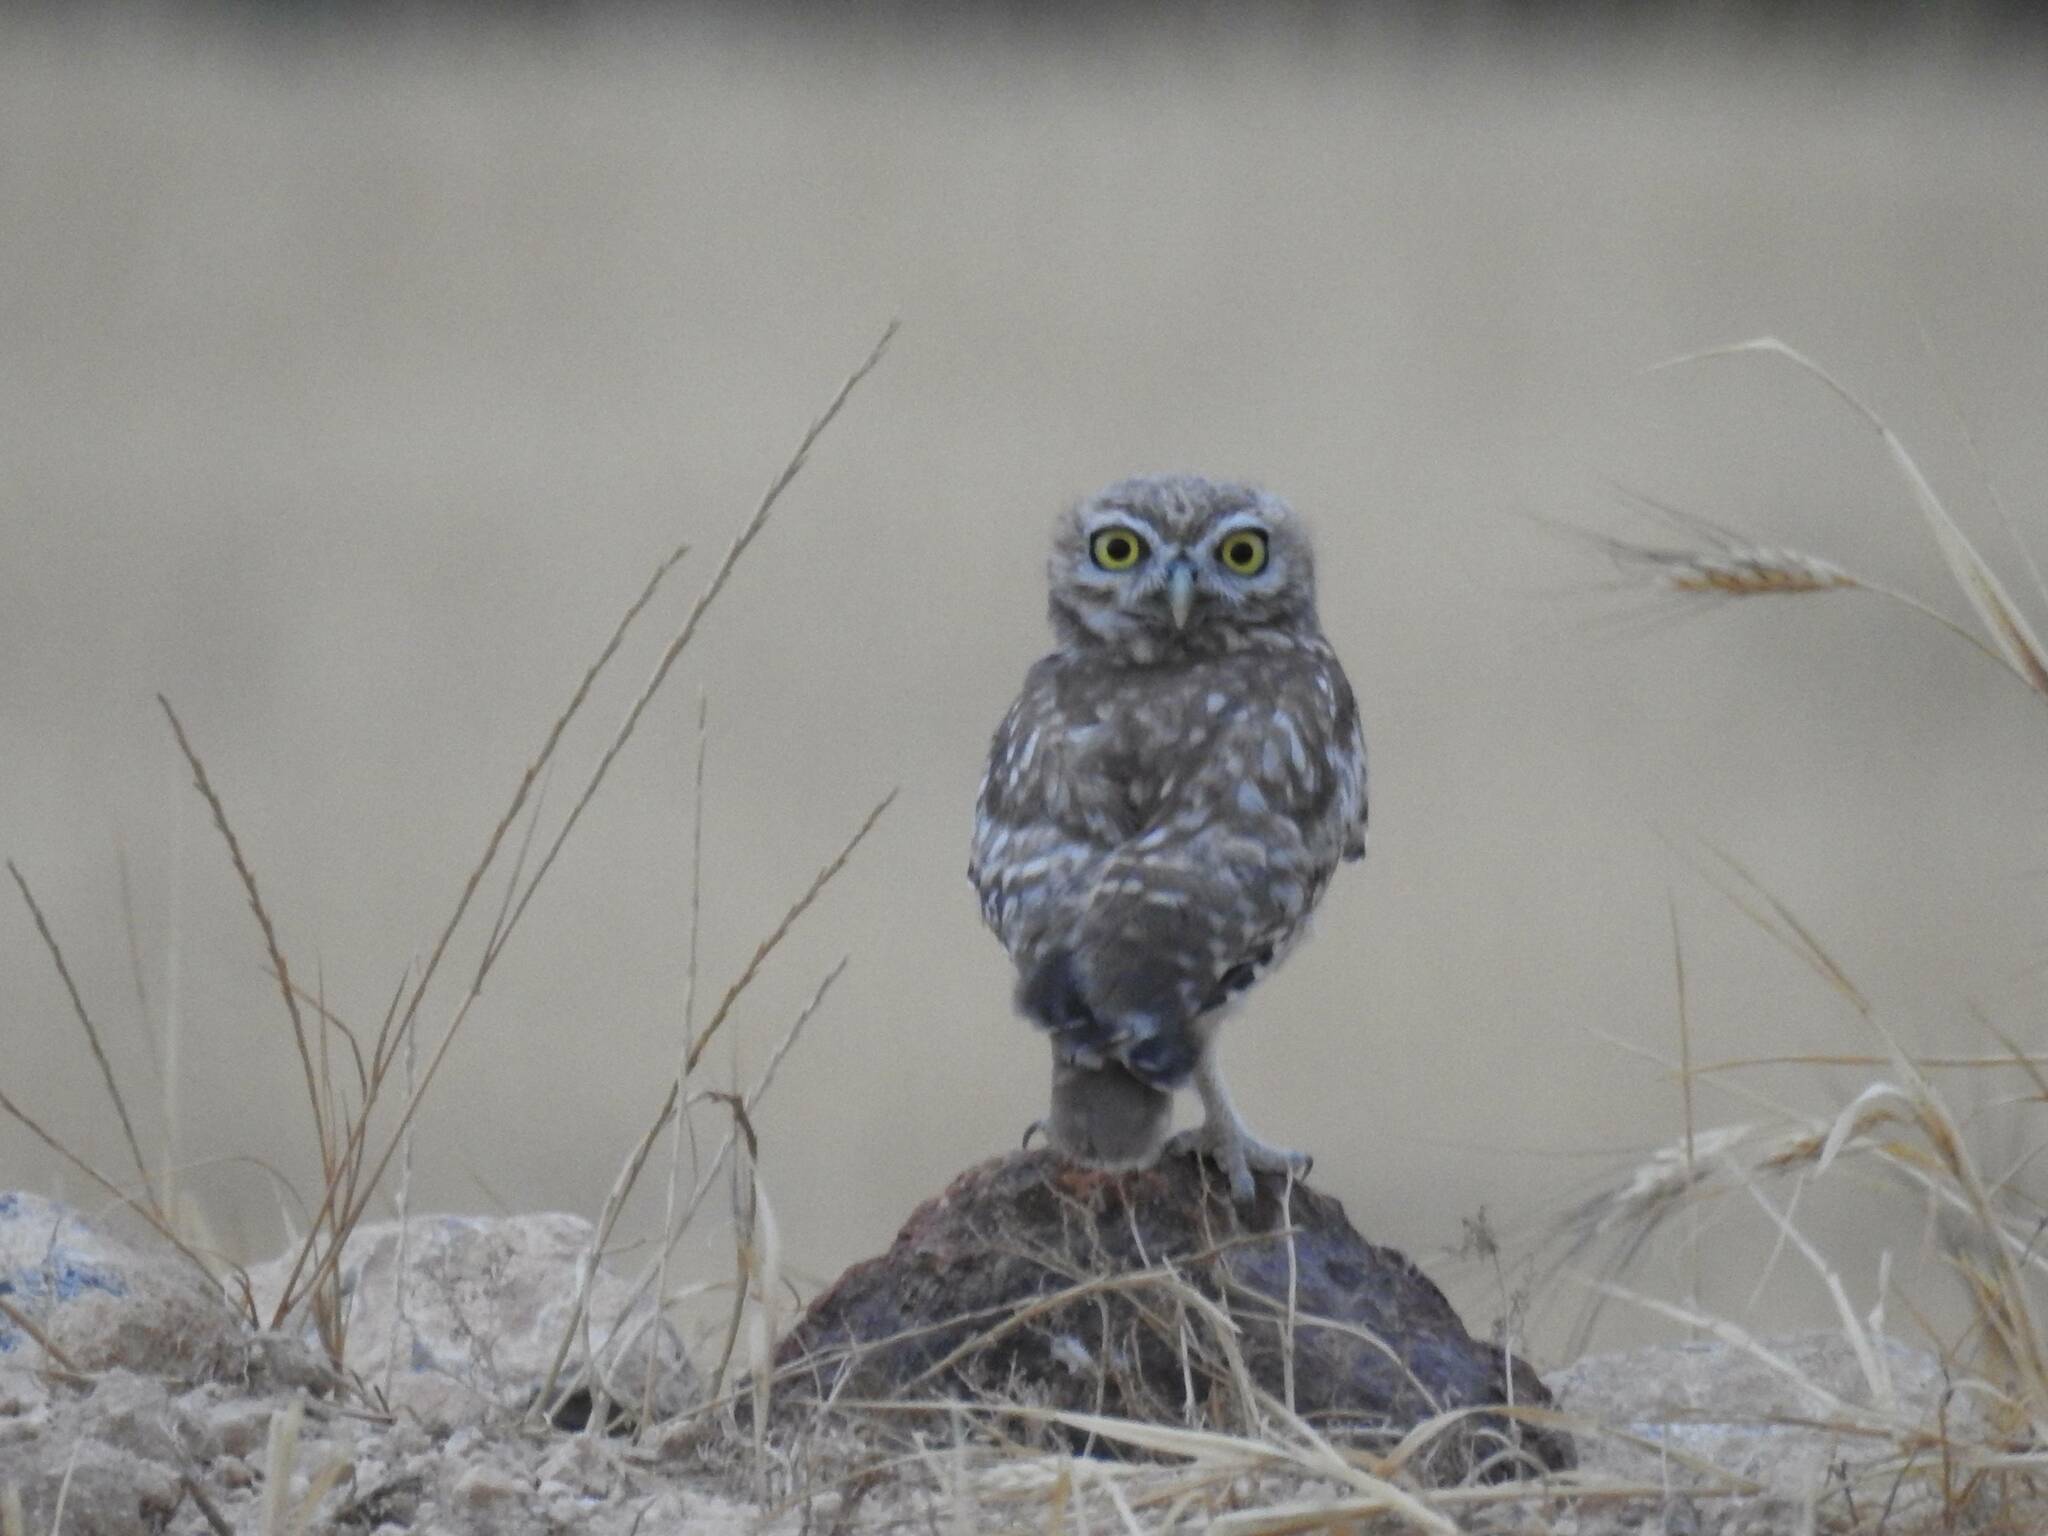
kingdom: Animalia
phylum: Chordata
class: Aves
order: Strigiformes
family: Strigidae
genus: Athene
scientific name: Athene noctua
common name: Little owl
